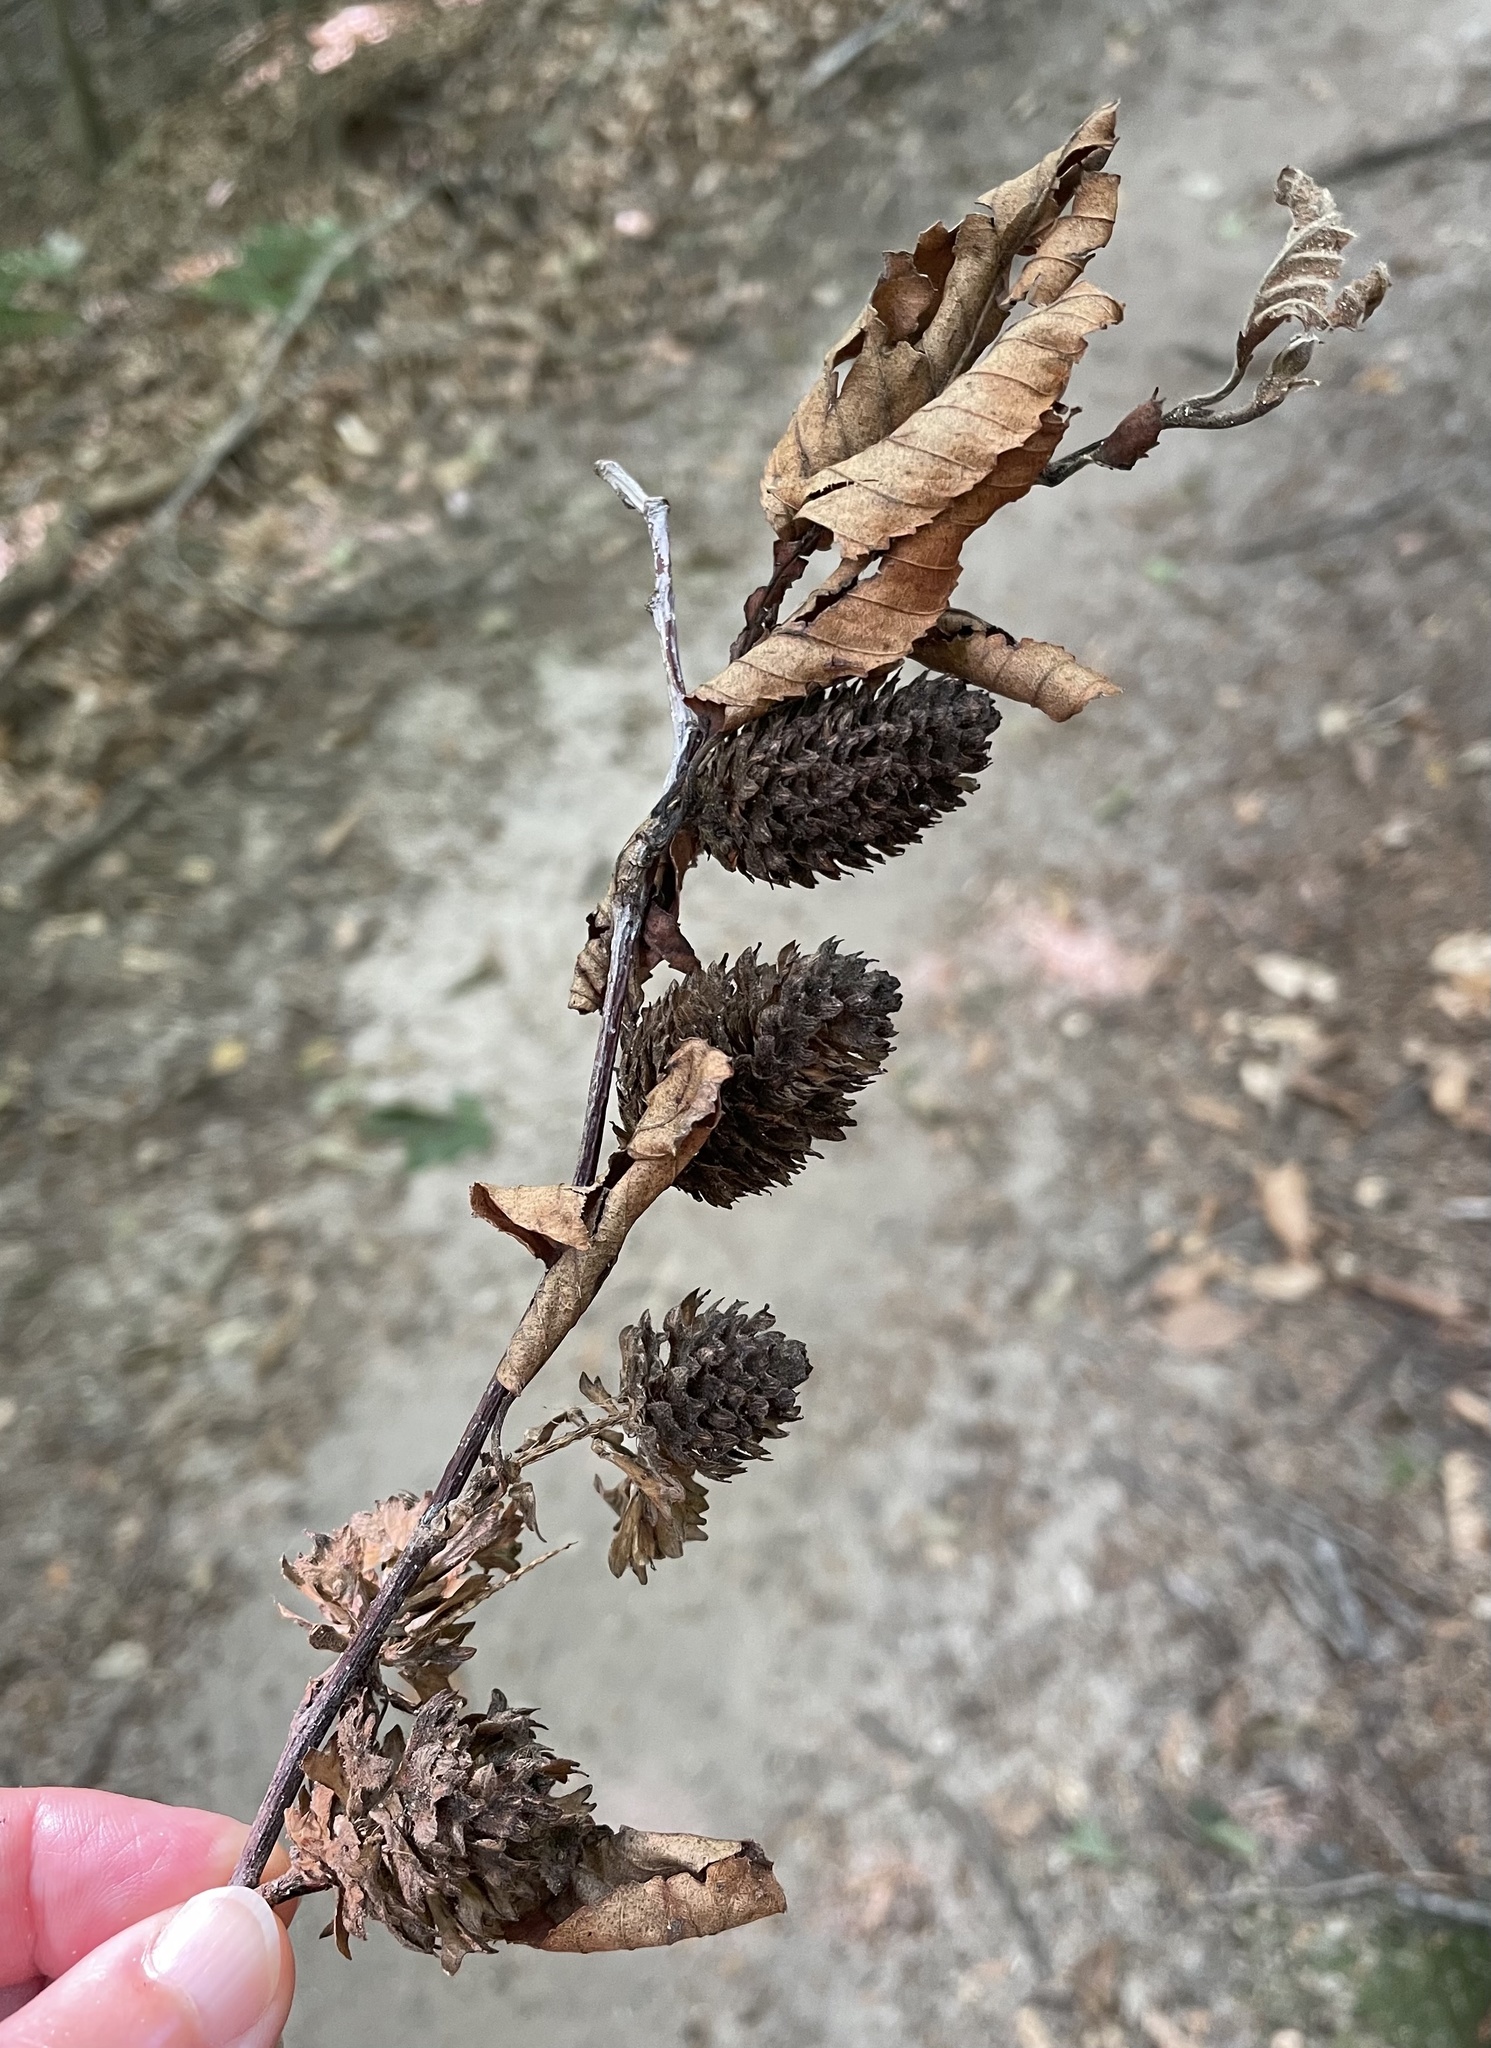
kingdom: Plantae
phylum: Tracheophyta
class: Magnoliopsida
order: Fagales
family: Betulaceae
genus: Betula
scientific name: Betula alleghaniensis
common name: Yellow birch
